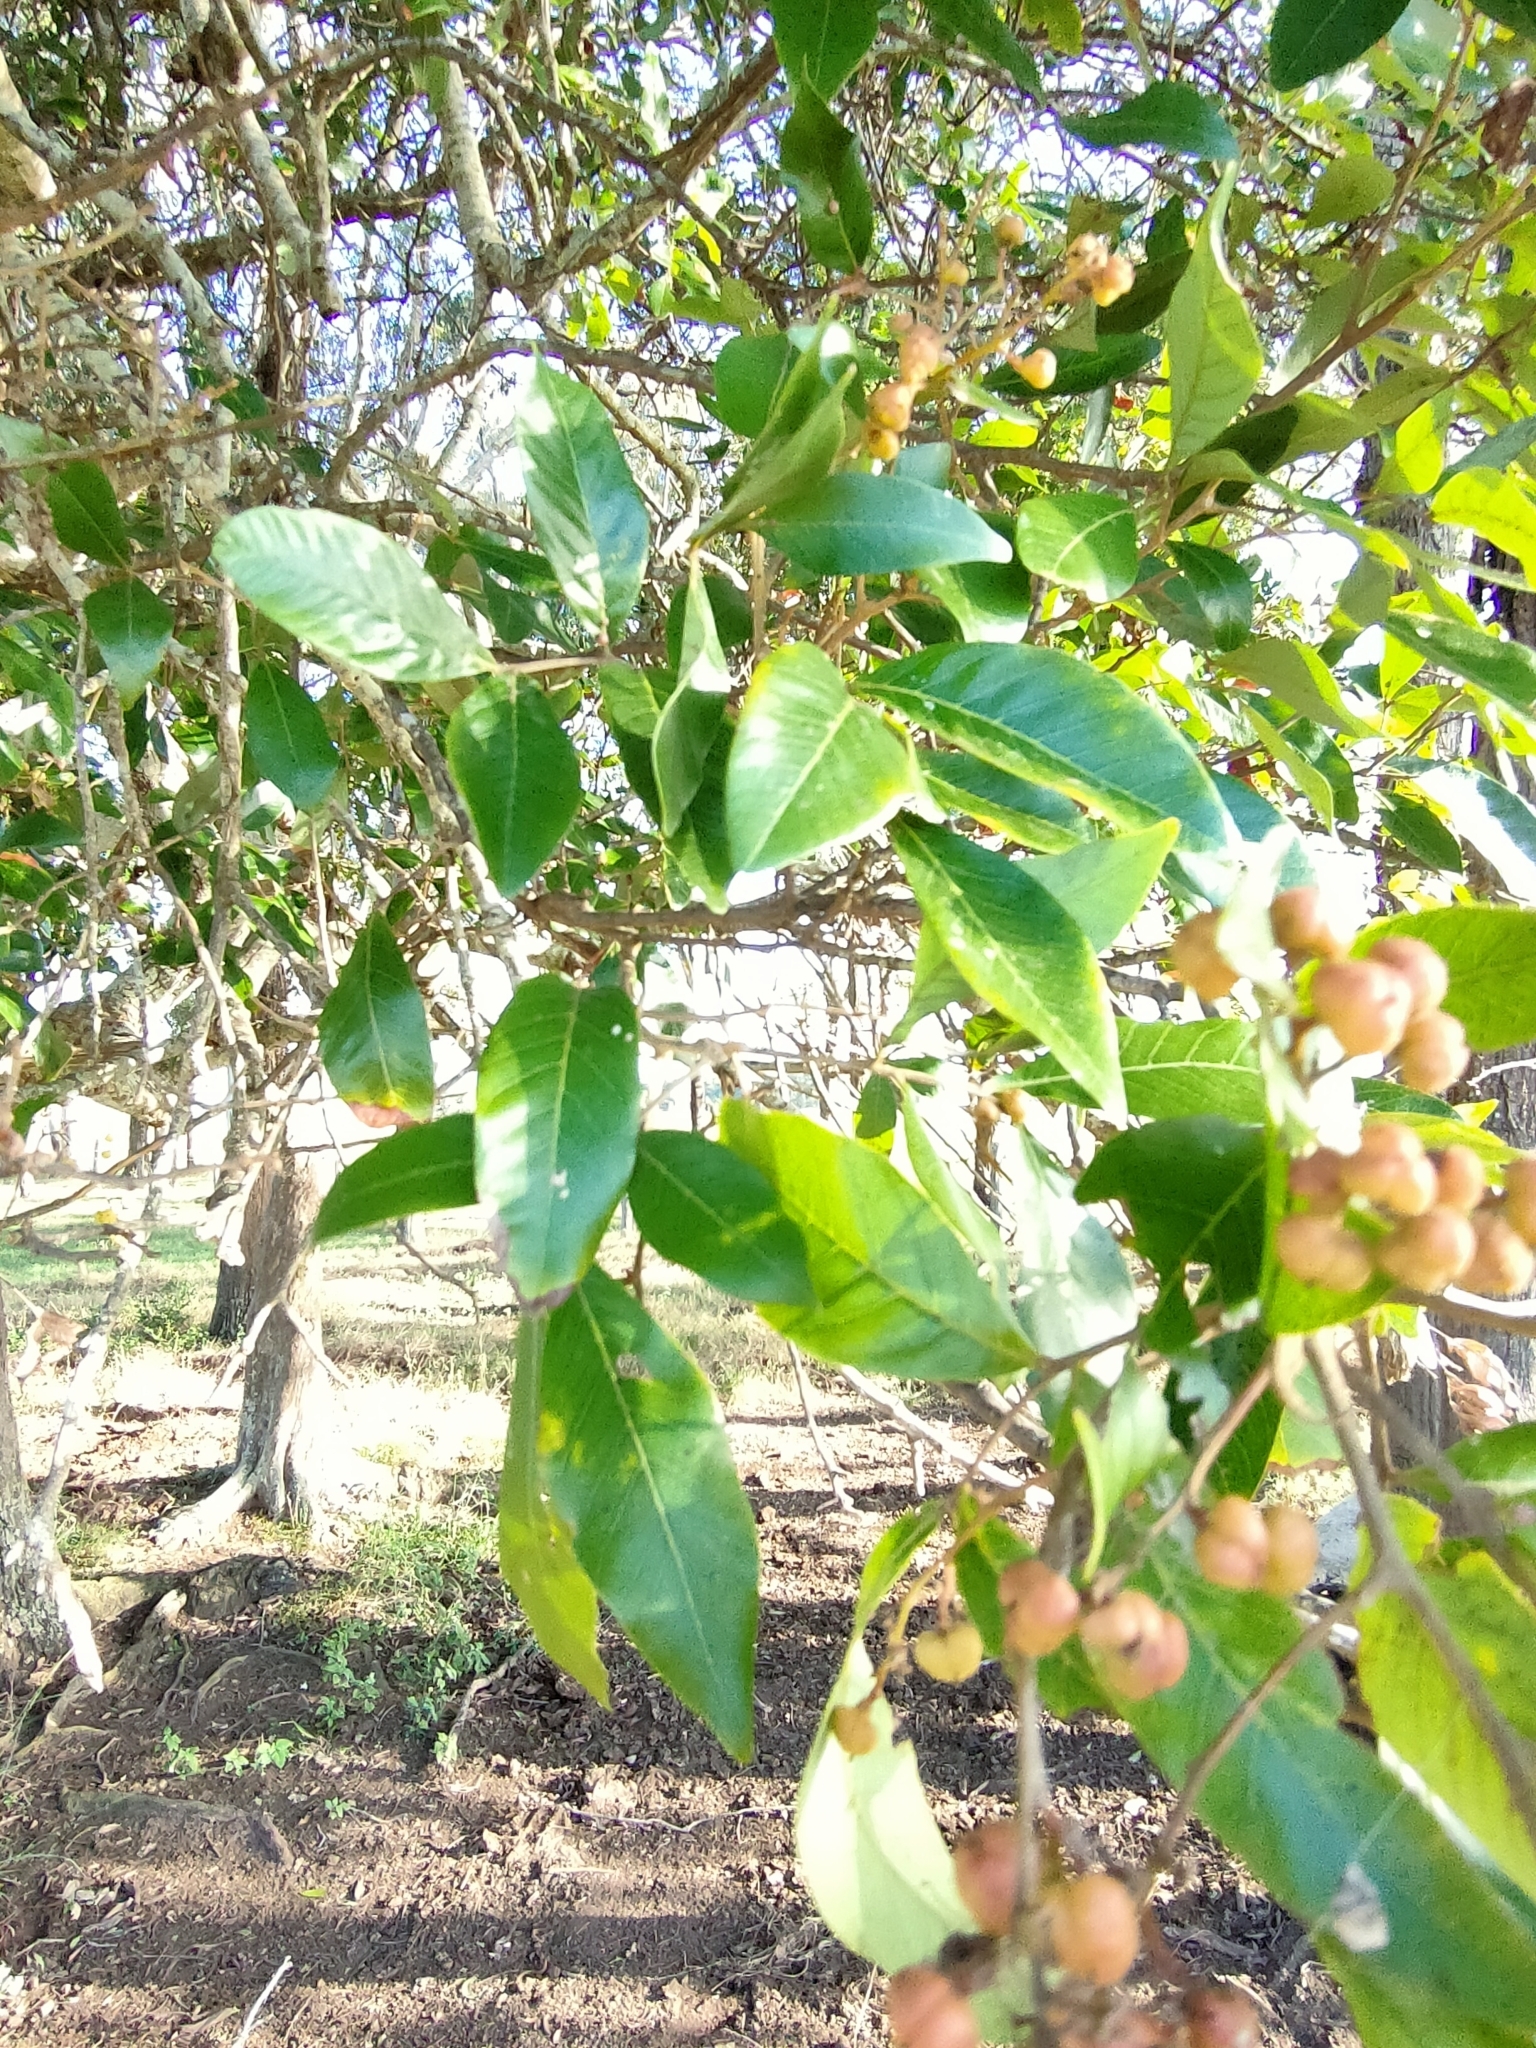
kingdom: Plantae
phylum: Tracheophyta
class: Magnoliopsida
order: Sapindales
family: Sapindaceae
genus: Alectryon
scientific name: Alectryon connatus
